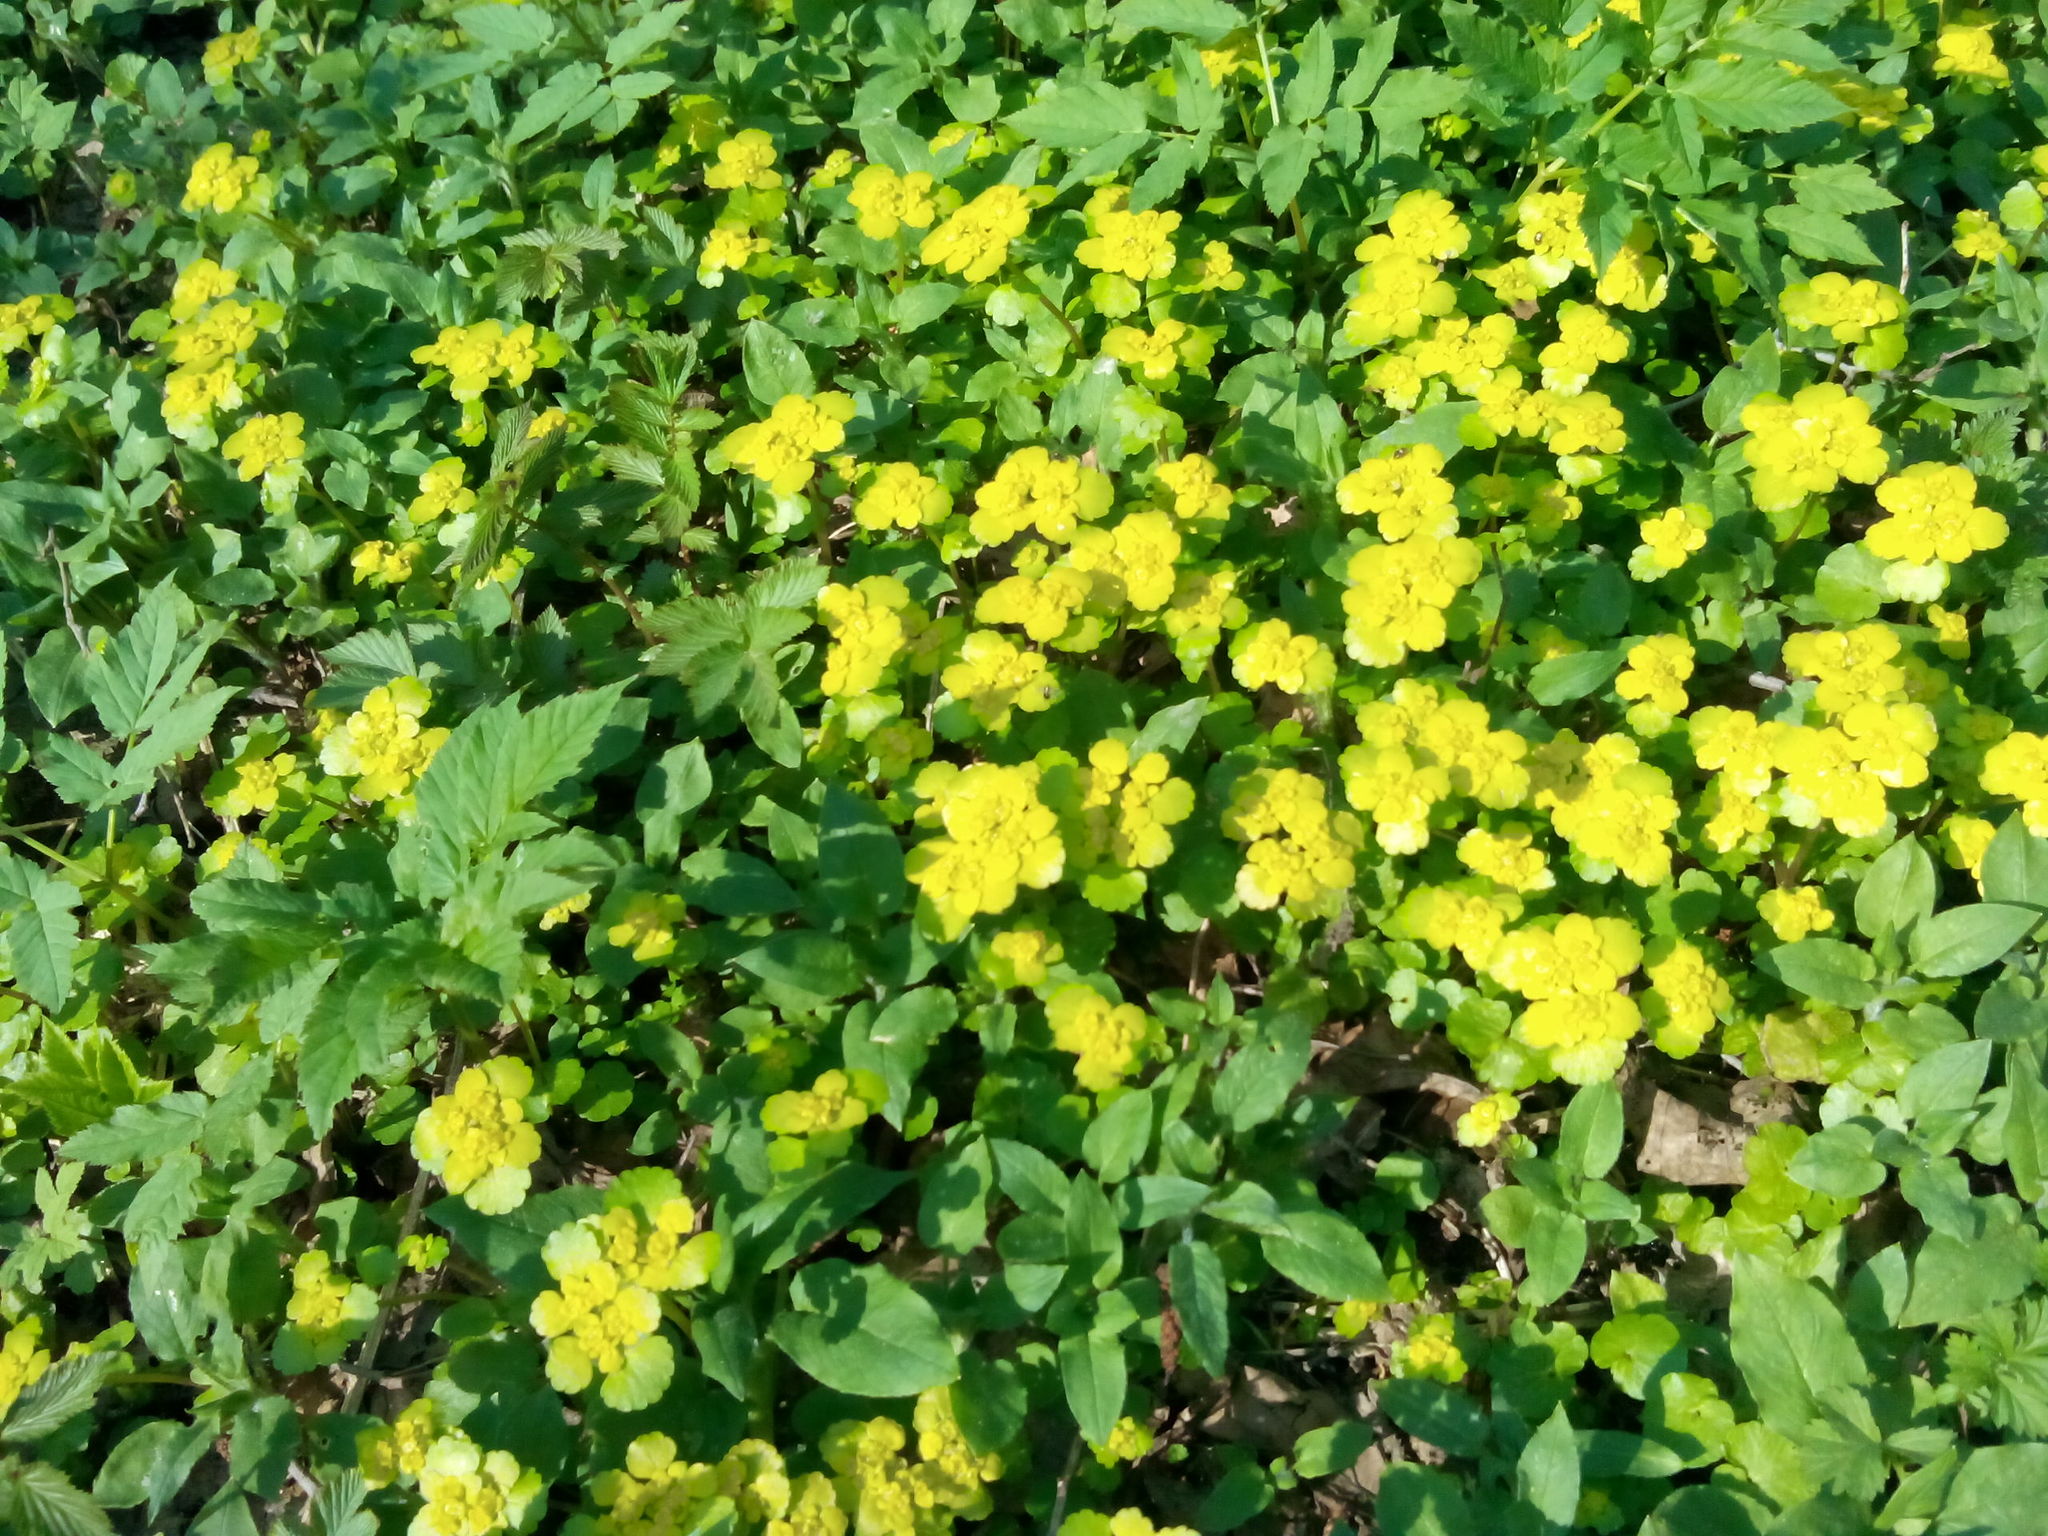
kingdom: Plantae
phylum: Tracheophyta
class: Magnoliopsida
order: Saxifragales
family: Saxifragaceae
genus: Chrysosplenium
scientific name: Chrysosplenium alternifolium
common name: Alternate-leaved golden-saxifrage
